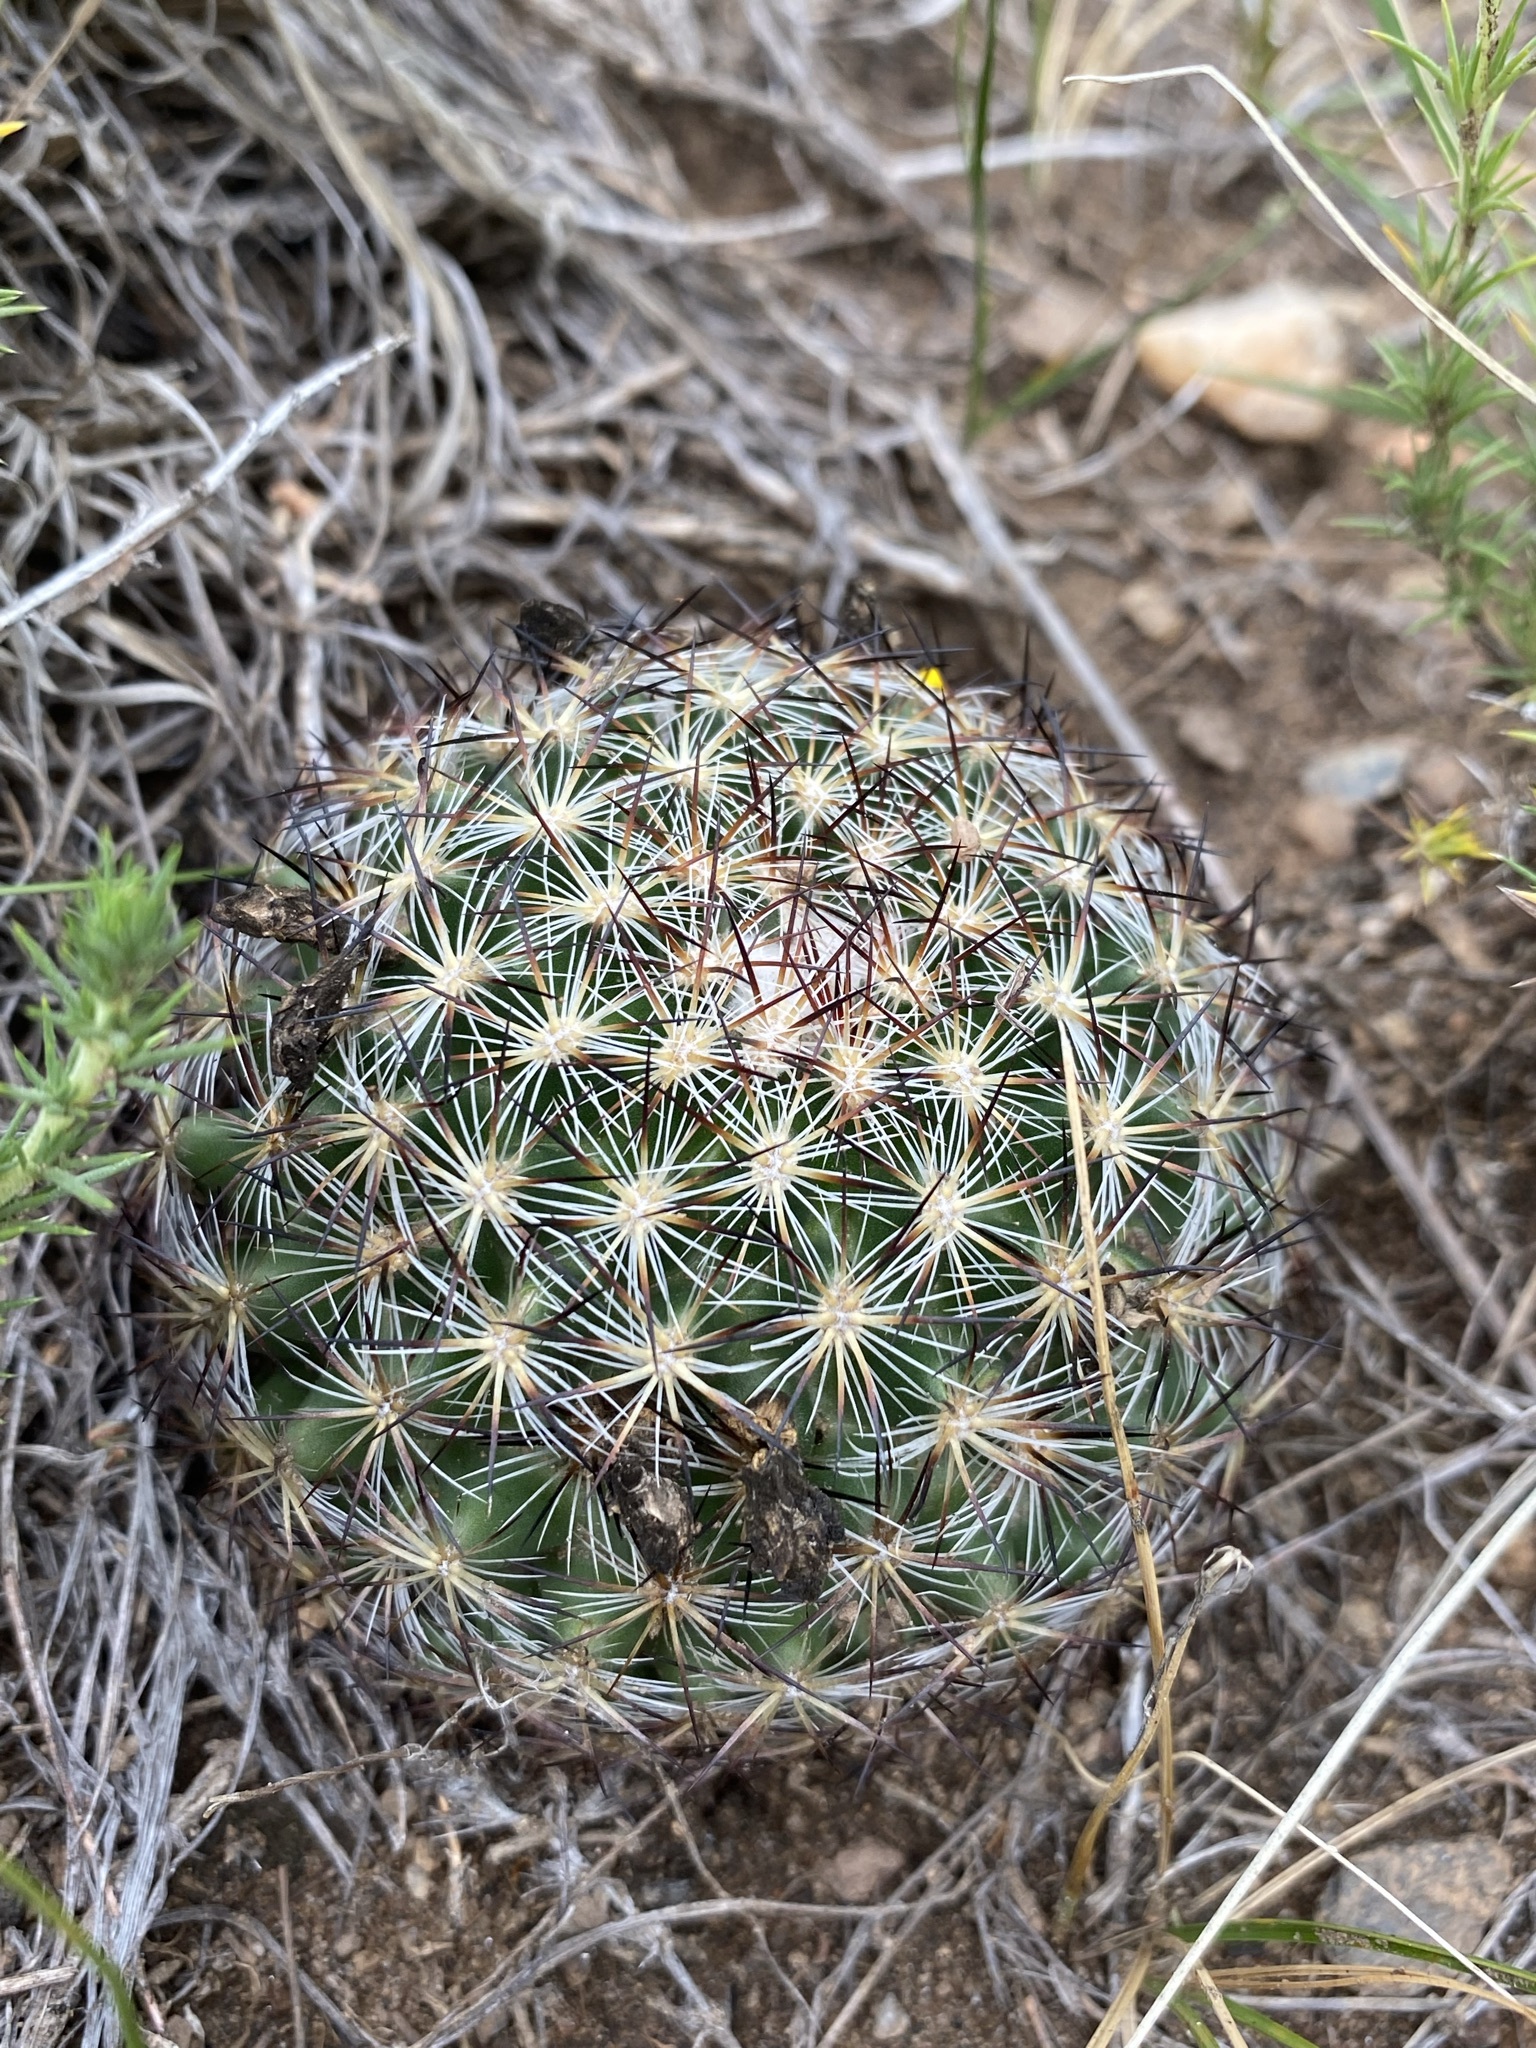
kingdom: Plantae
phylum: Tracheophyta
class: Magnoliopsida
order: Caryophyllales
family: Cactaceae
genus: Pediocactus
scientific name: Pediocactus simpsonii
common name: Simpson's hedgehog cactus
